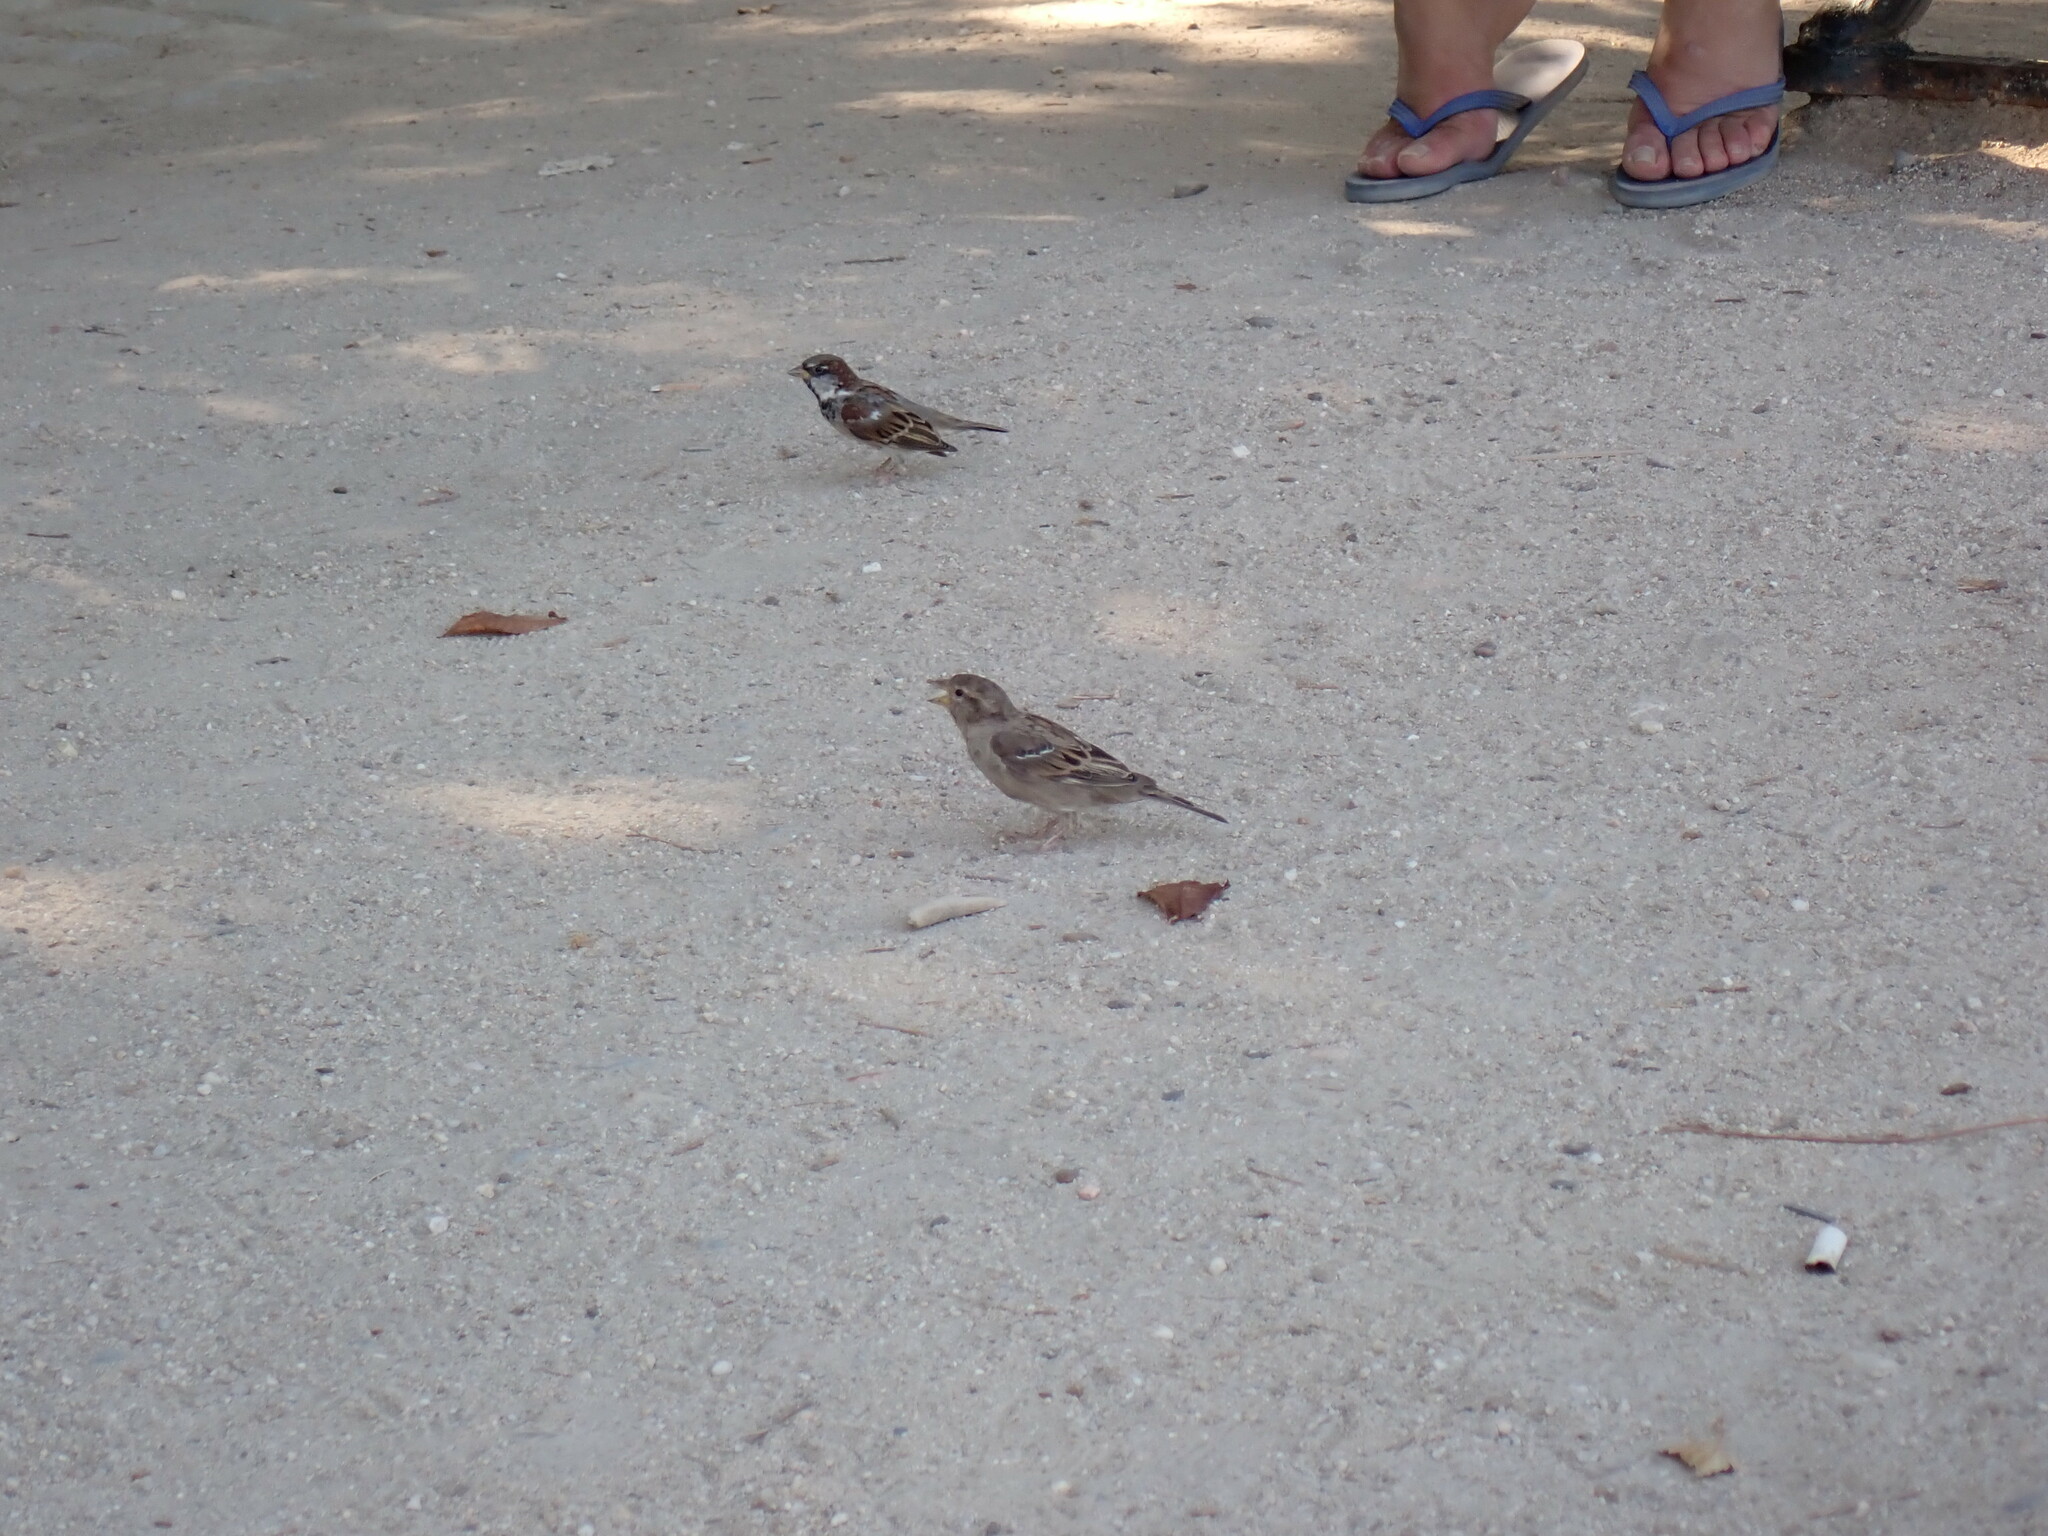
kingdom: Animalia
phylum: Chordata
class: Aves
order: Passeriformes
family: Passeridae
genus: Passer
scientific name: Passer domesticus
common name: House sparrow
